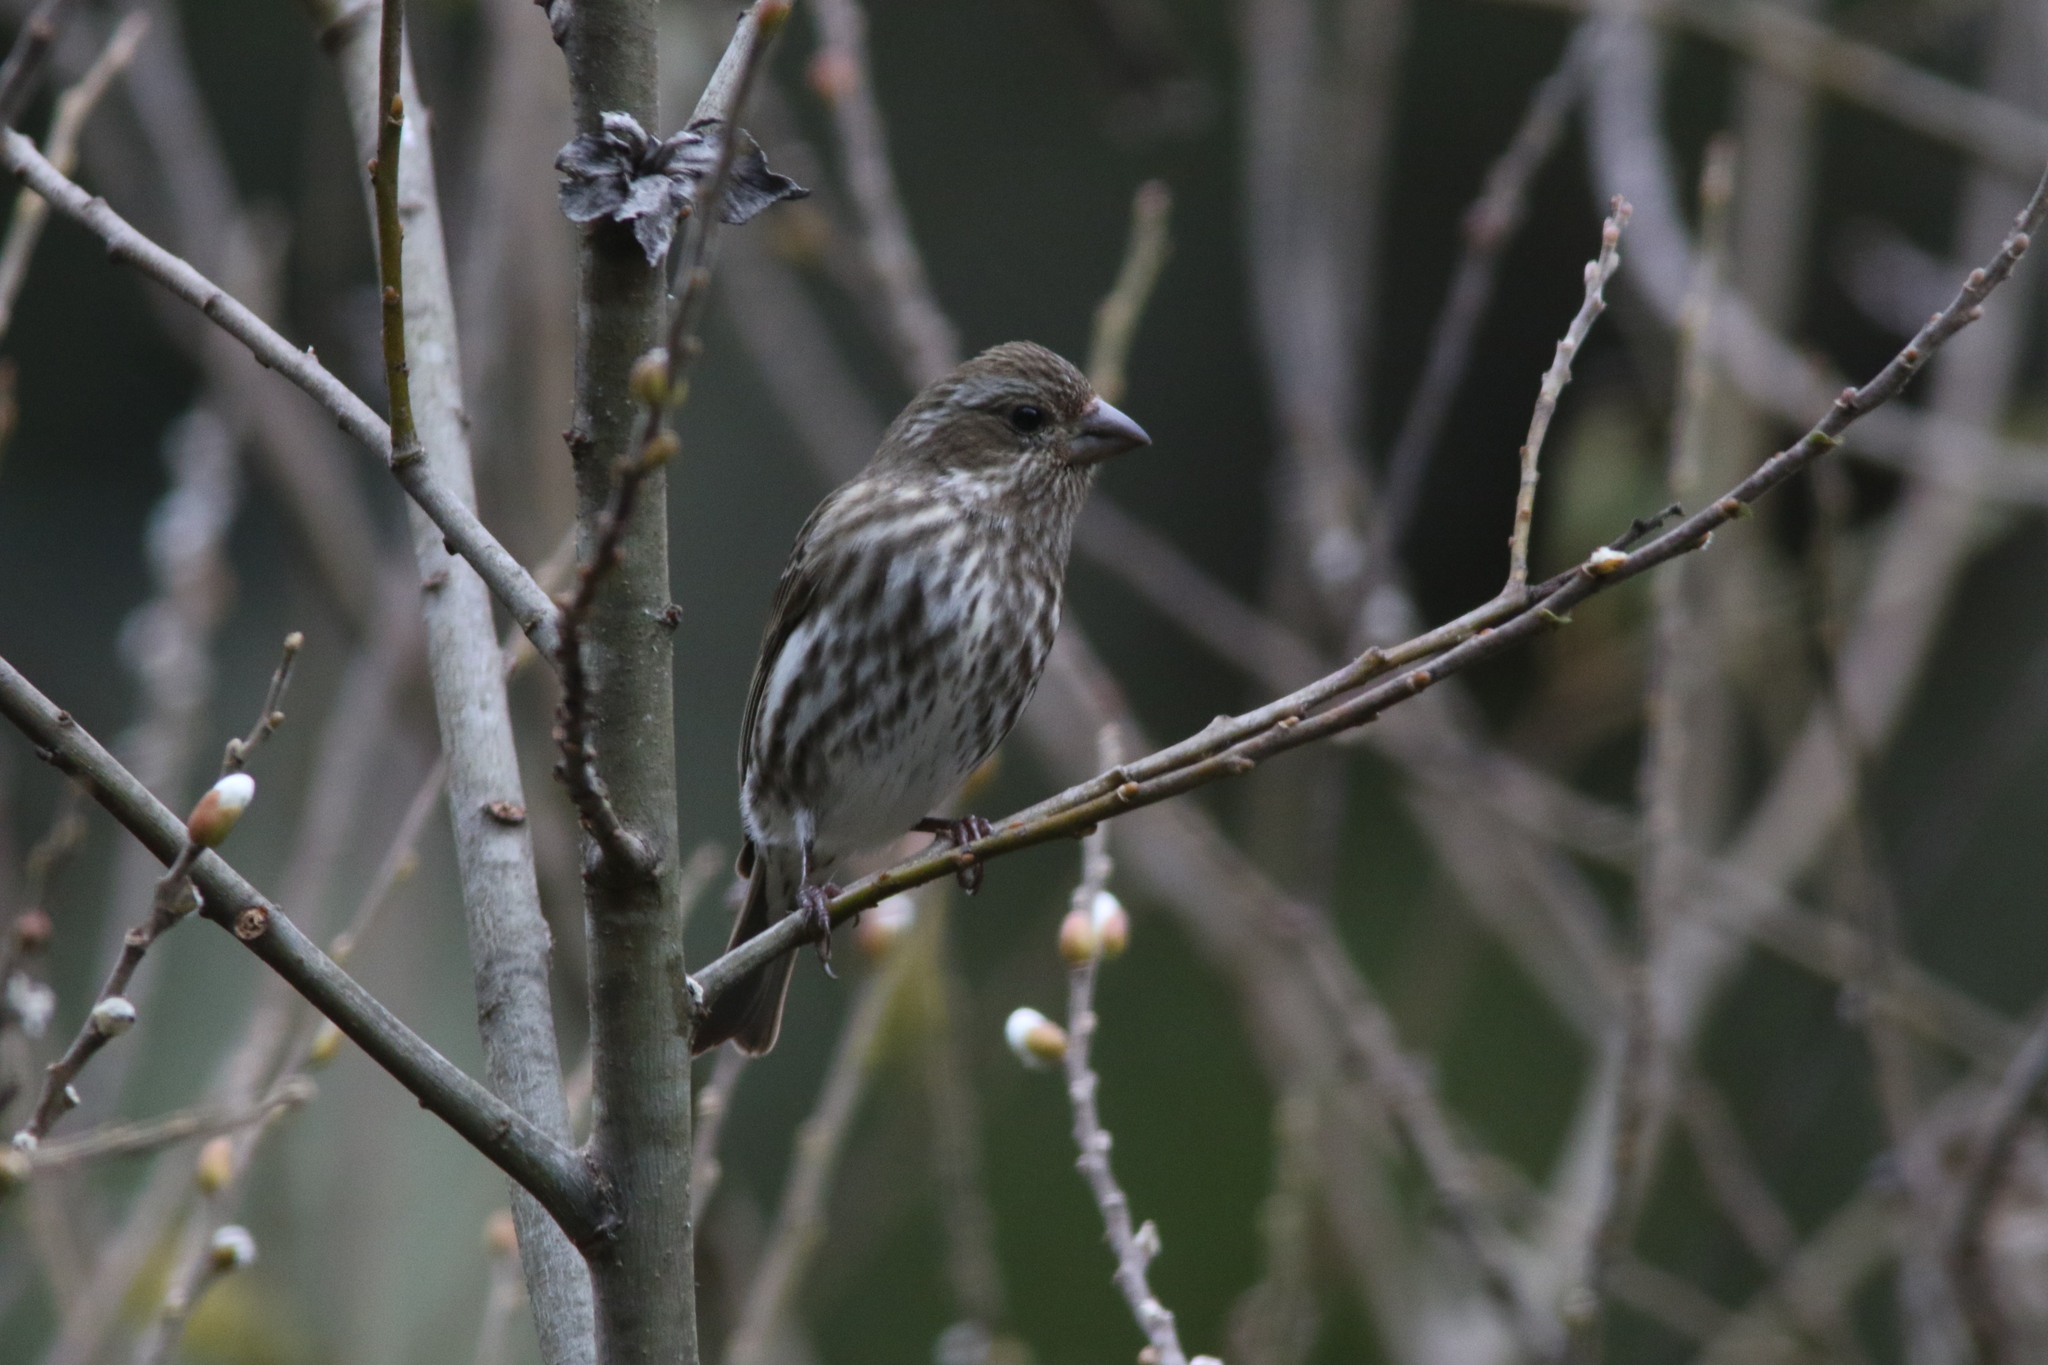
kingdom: Animalia
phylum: Chordata
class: Aves
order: Passeriformes
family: Fringillidae
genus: Haemorhous
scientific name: Haemorhous purpureus
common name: Purple finch
